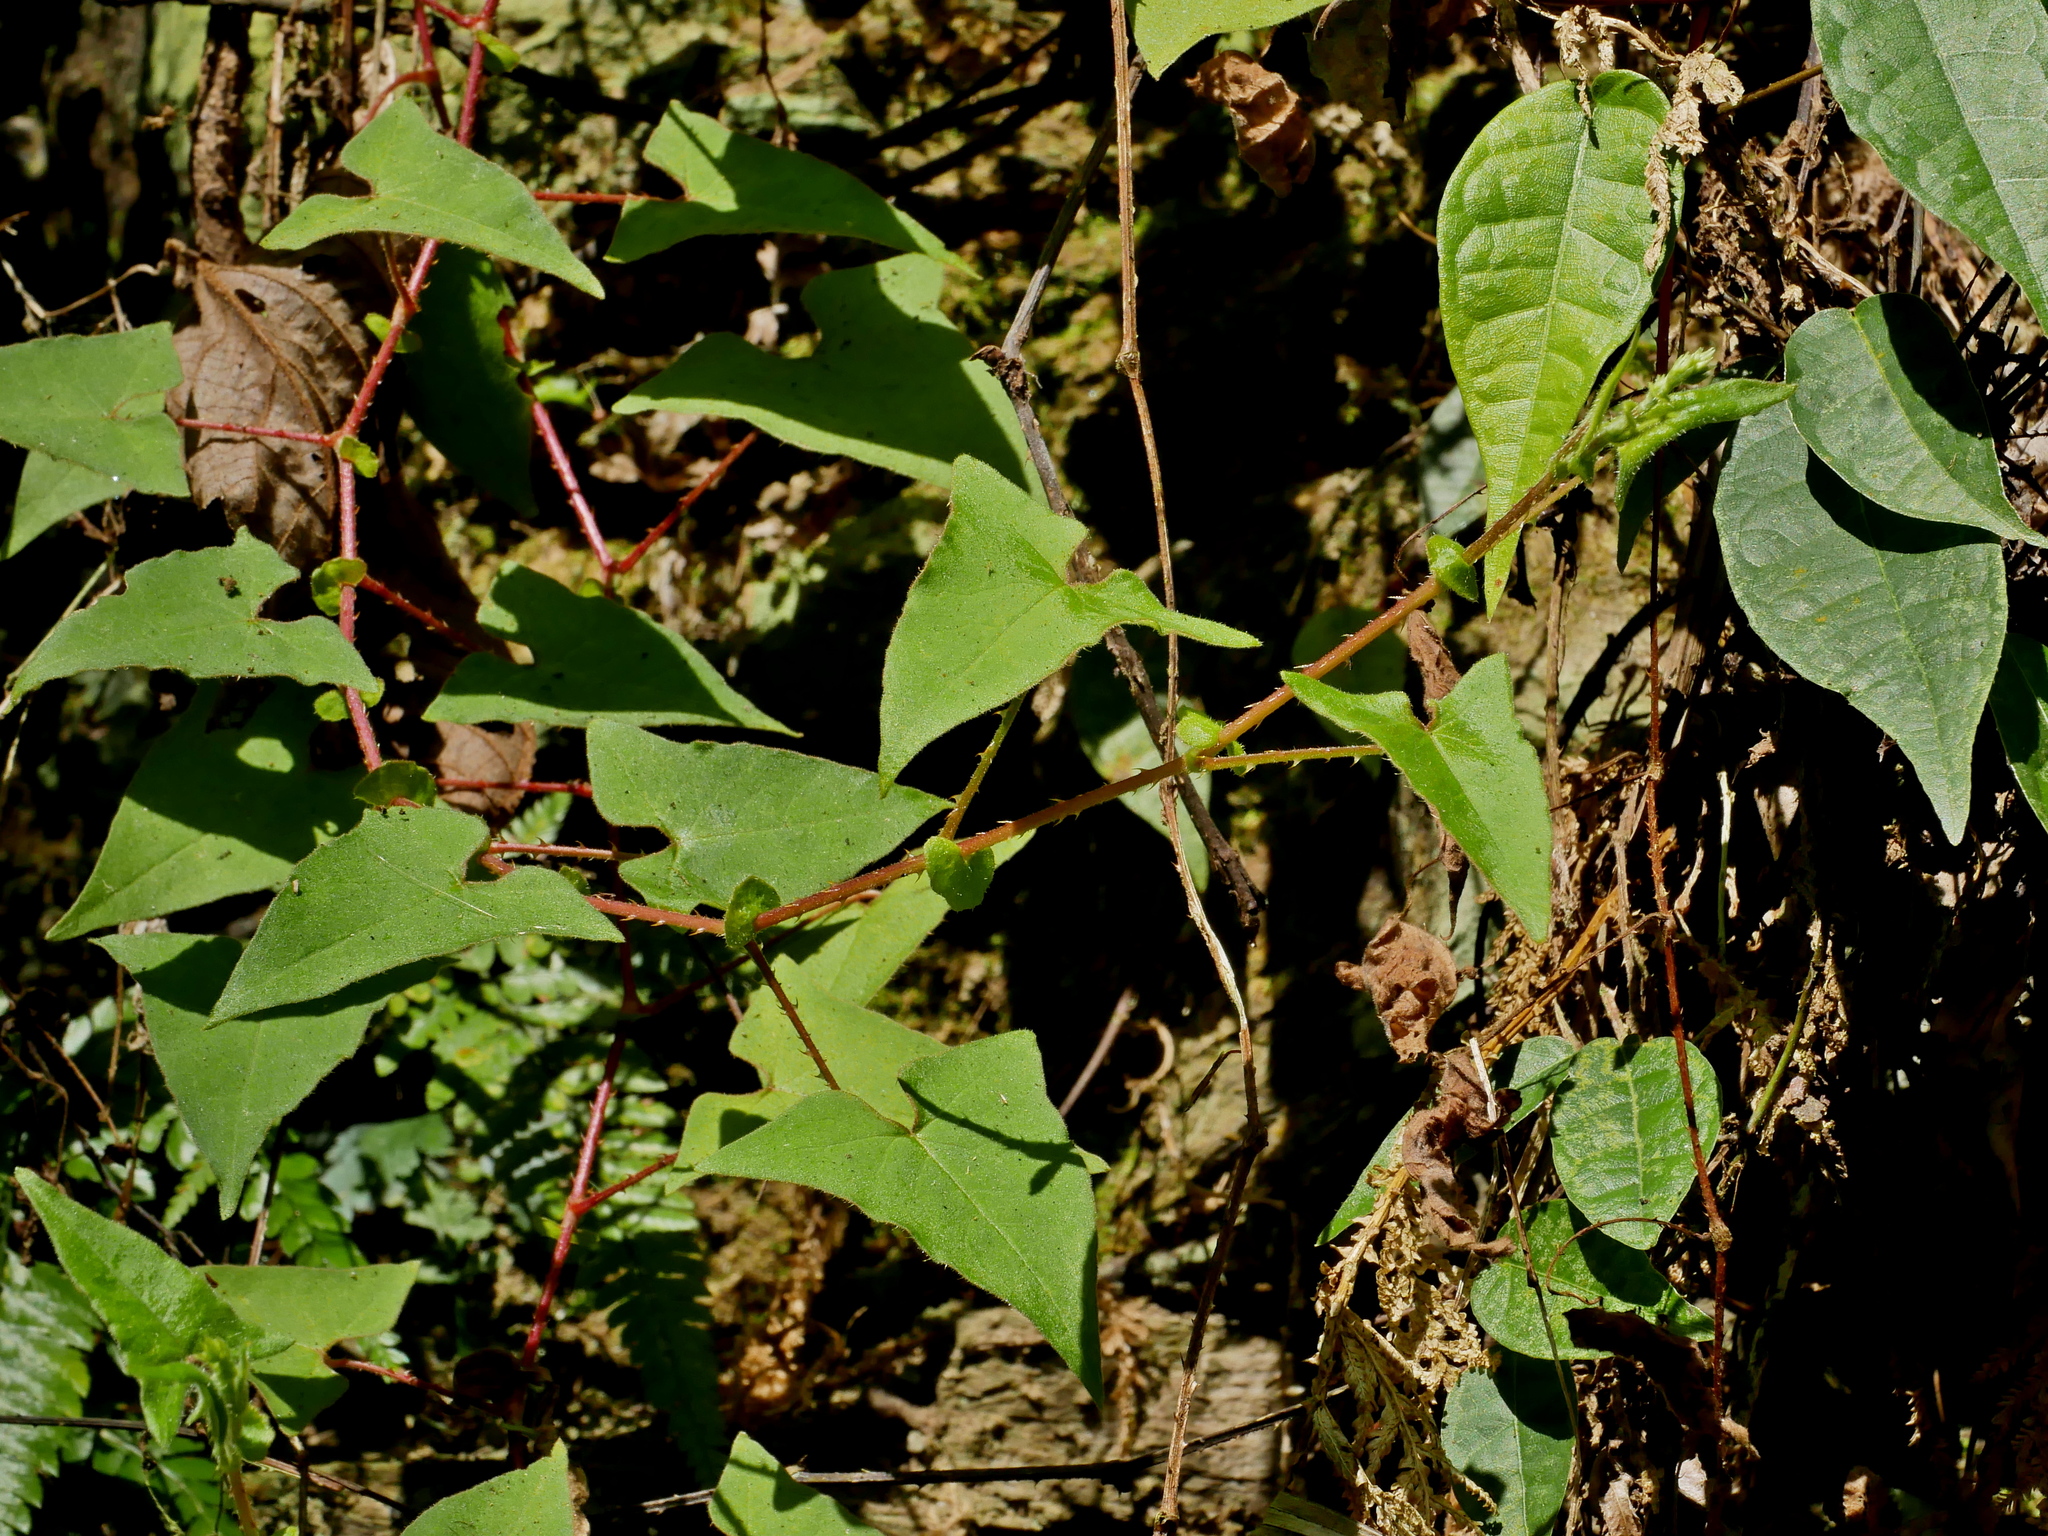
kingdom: Plantae
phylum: Tracheophyta
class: Magnoliopsida
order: Caryophyllales
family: Polygonaceae
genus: Persicaria
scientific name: Persicaria senticosa
